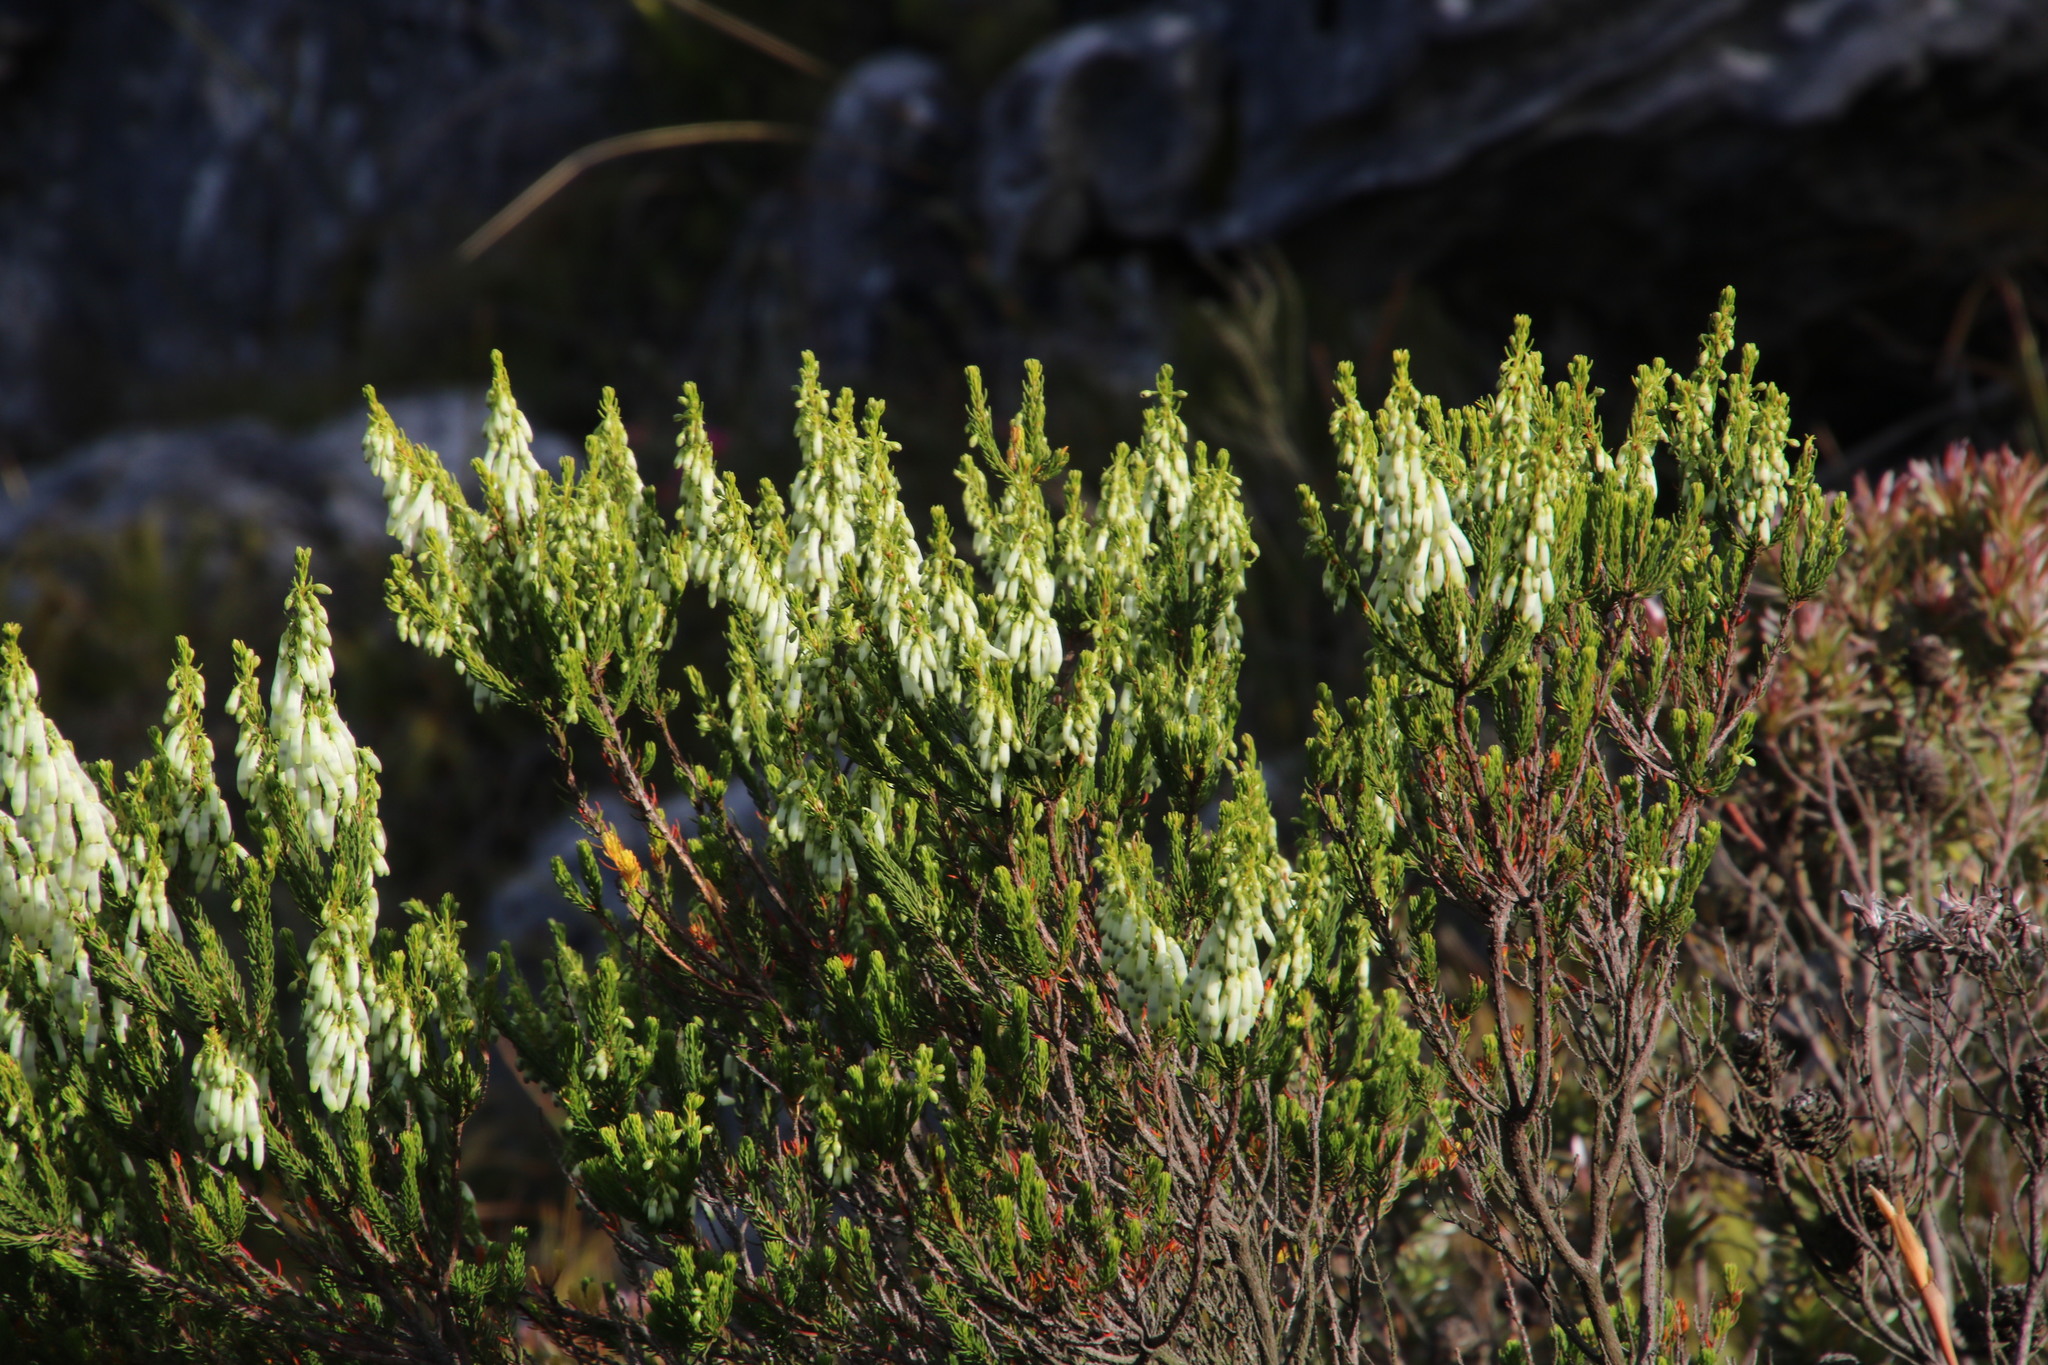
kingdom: Plantae
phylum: Tracheophyta
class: Magnoliopsida
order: Ericales
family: Ericaceae
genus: Erica
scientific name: Erica mammosa
